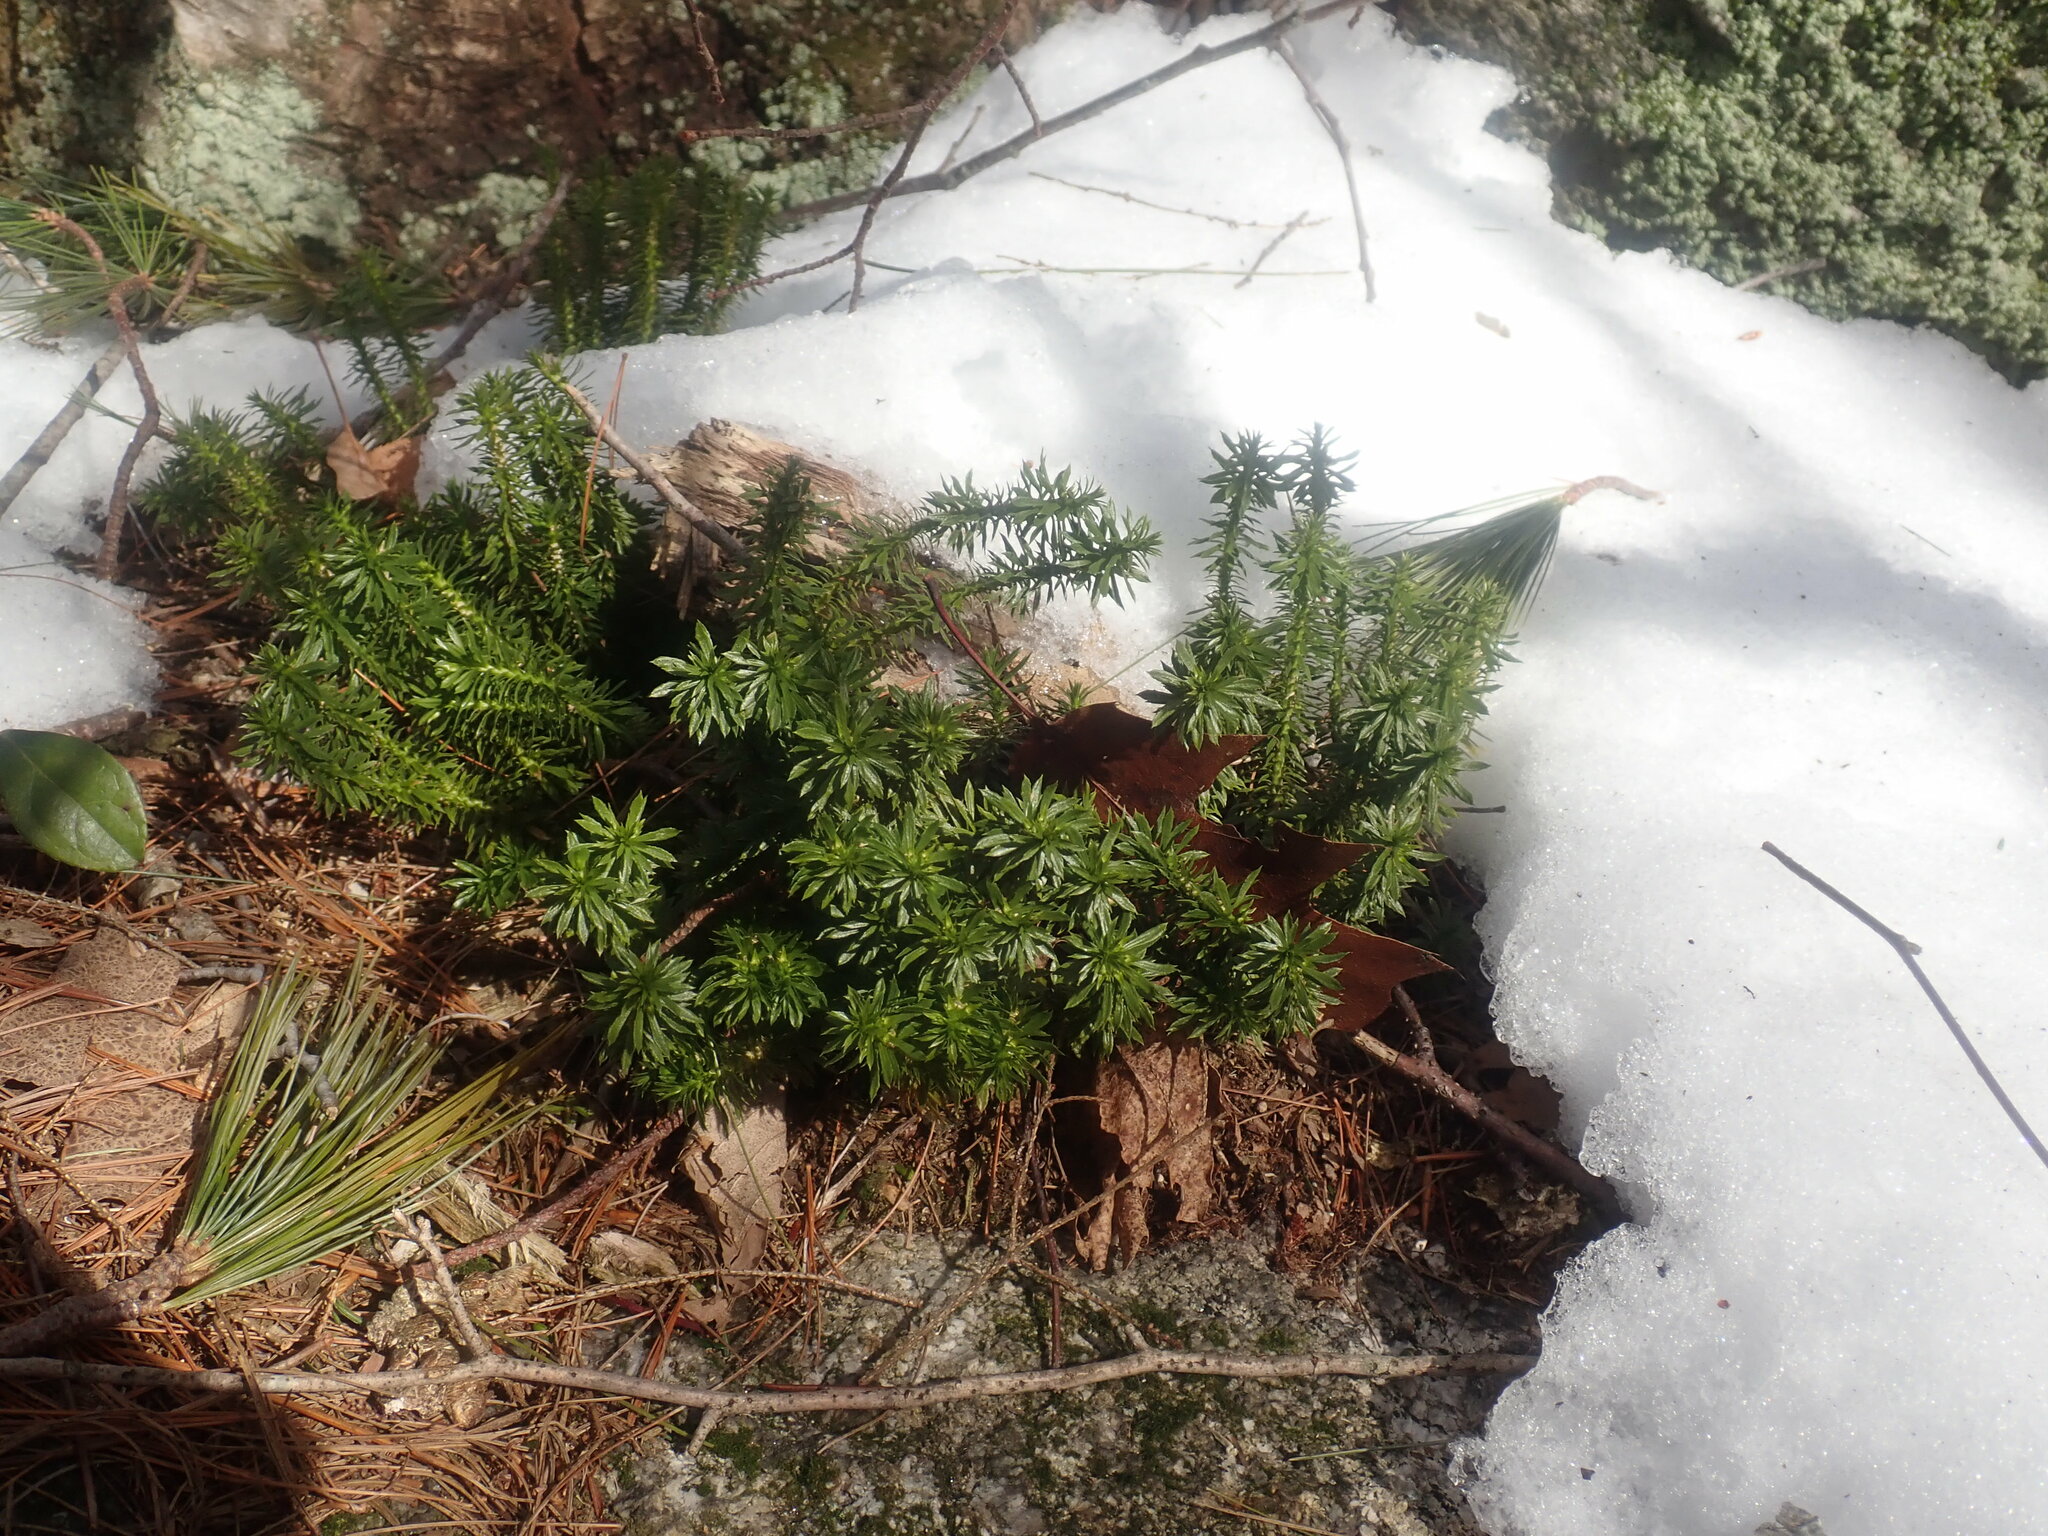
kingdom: Plantae
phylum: Tracheophyta
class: Lycopodiopsida
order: Lycopodiales
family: Lycopodiaceae
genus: Huperzia
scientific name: Huperzia lucidula
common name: Shining clubmoss
